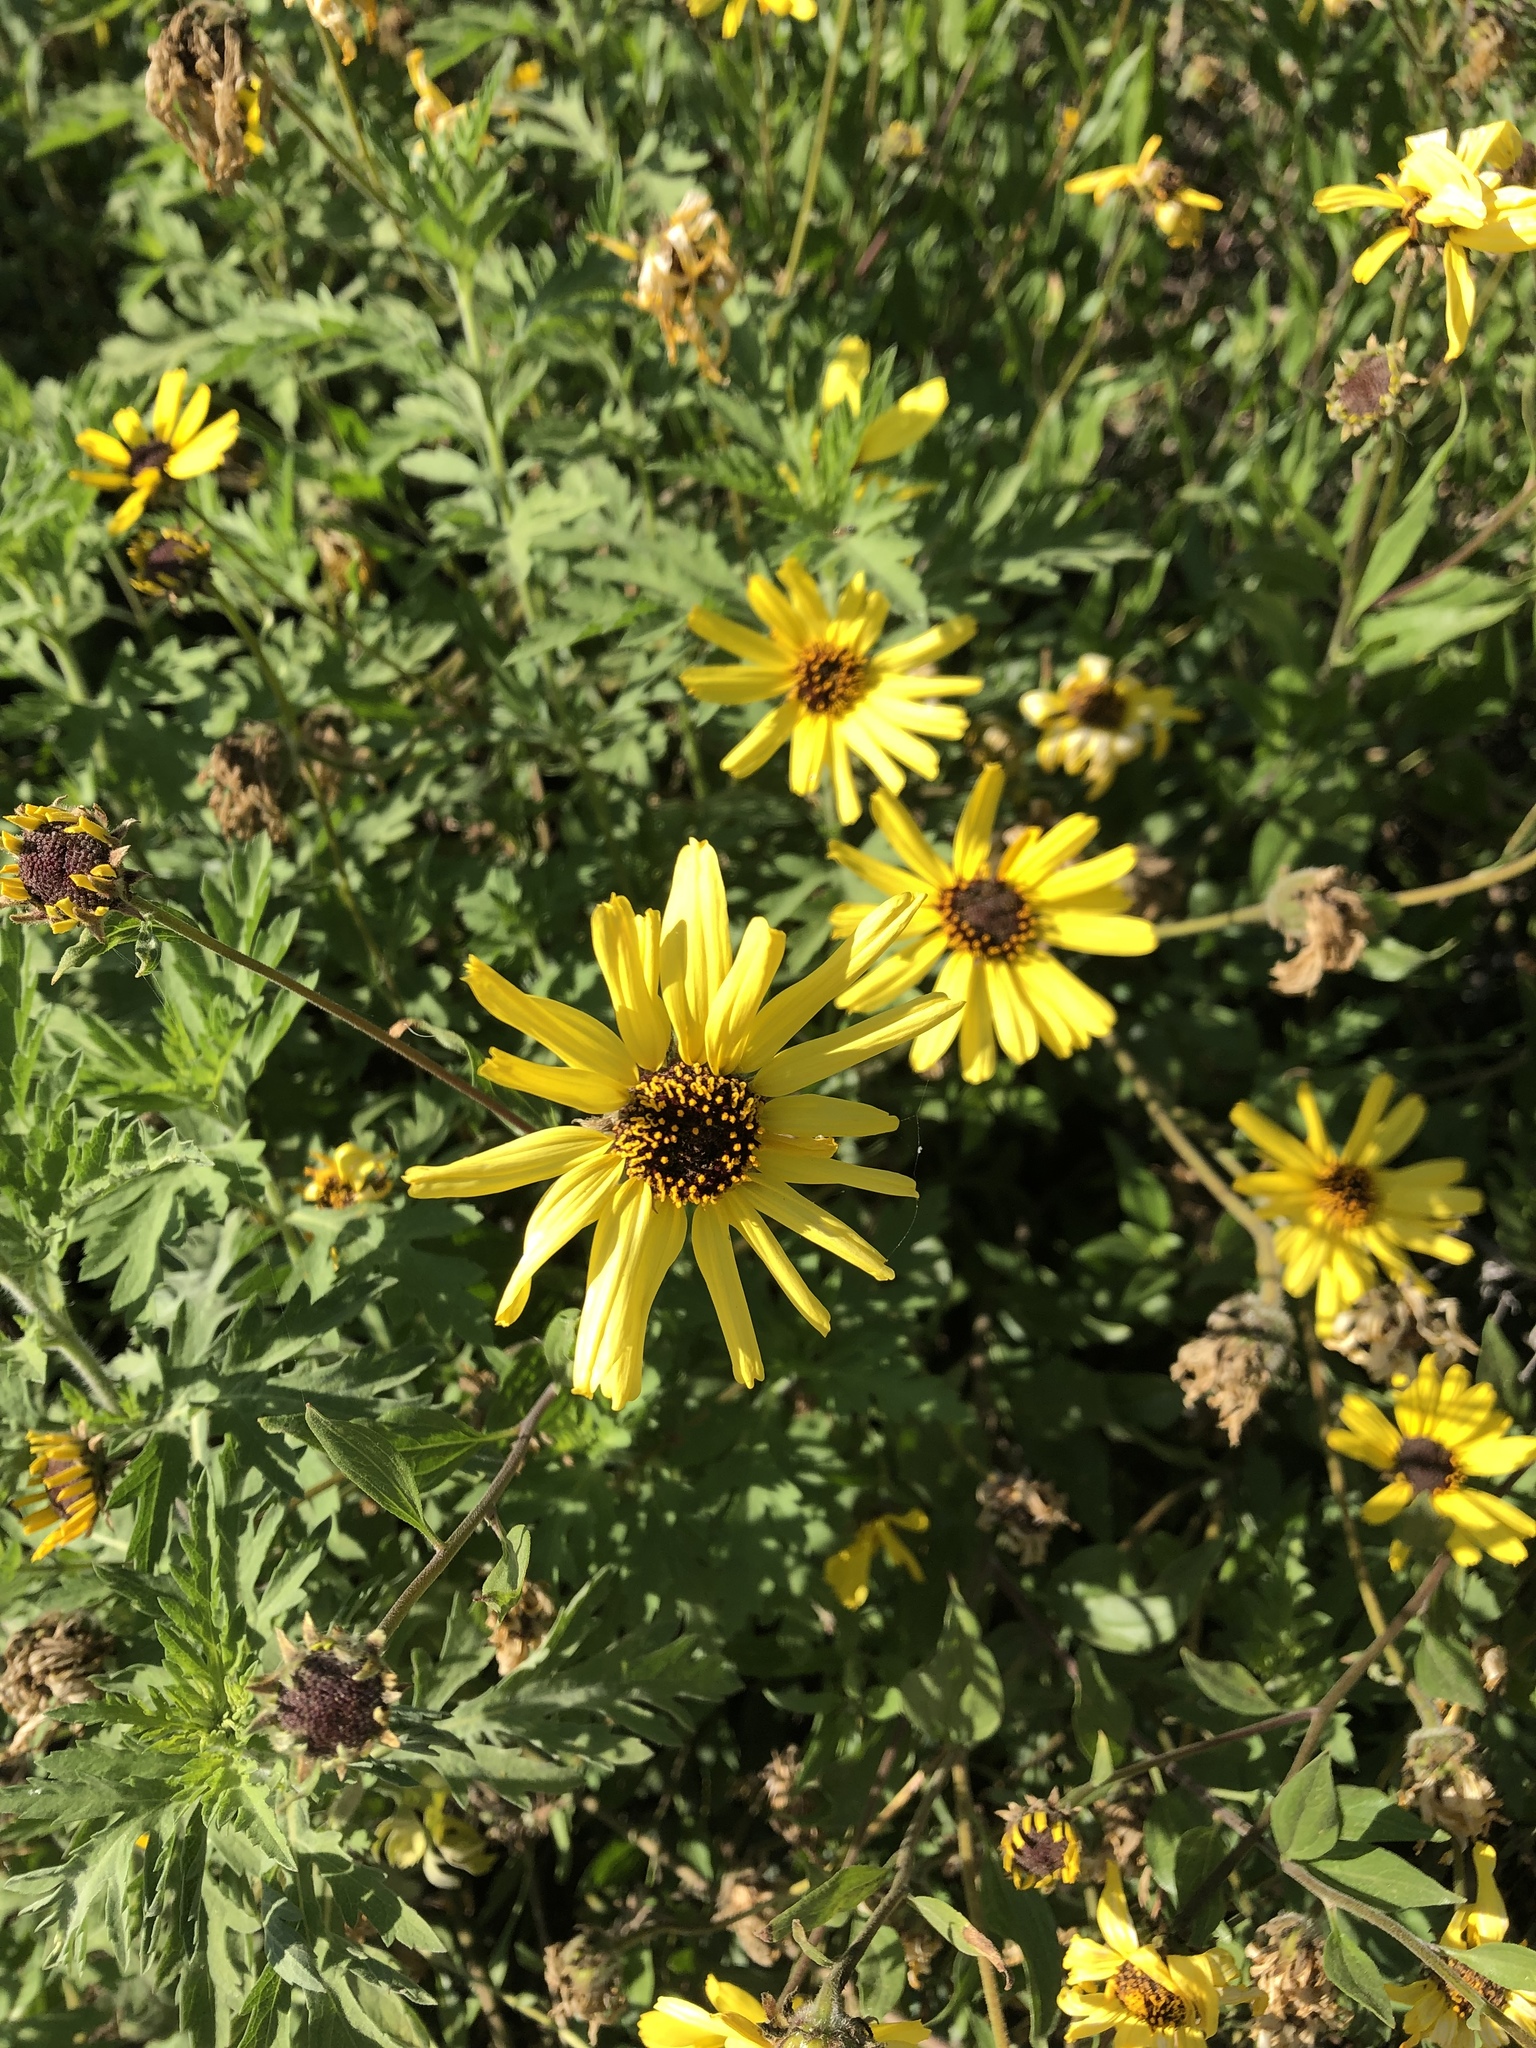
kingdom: Plantae
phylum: Tracheophyta
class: Magnoliopsida
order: Asterales
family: Asteraceae
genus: Encelia
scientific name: Encelia californica
